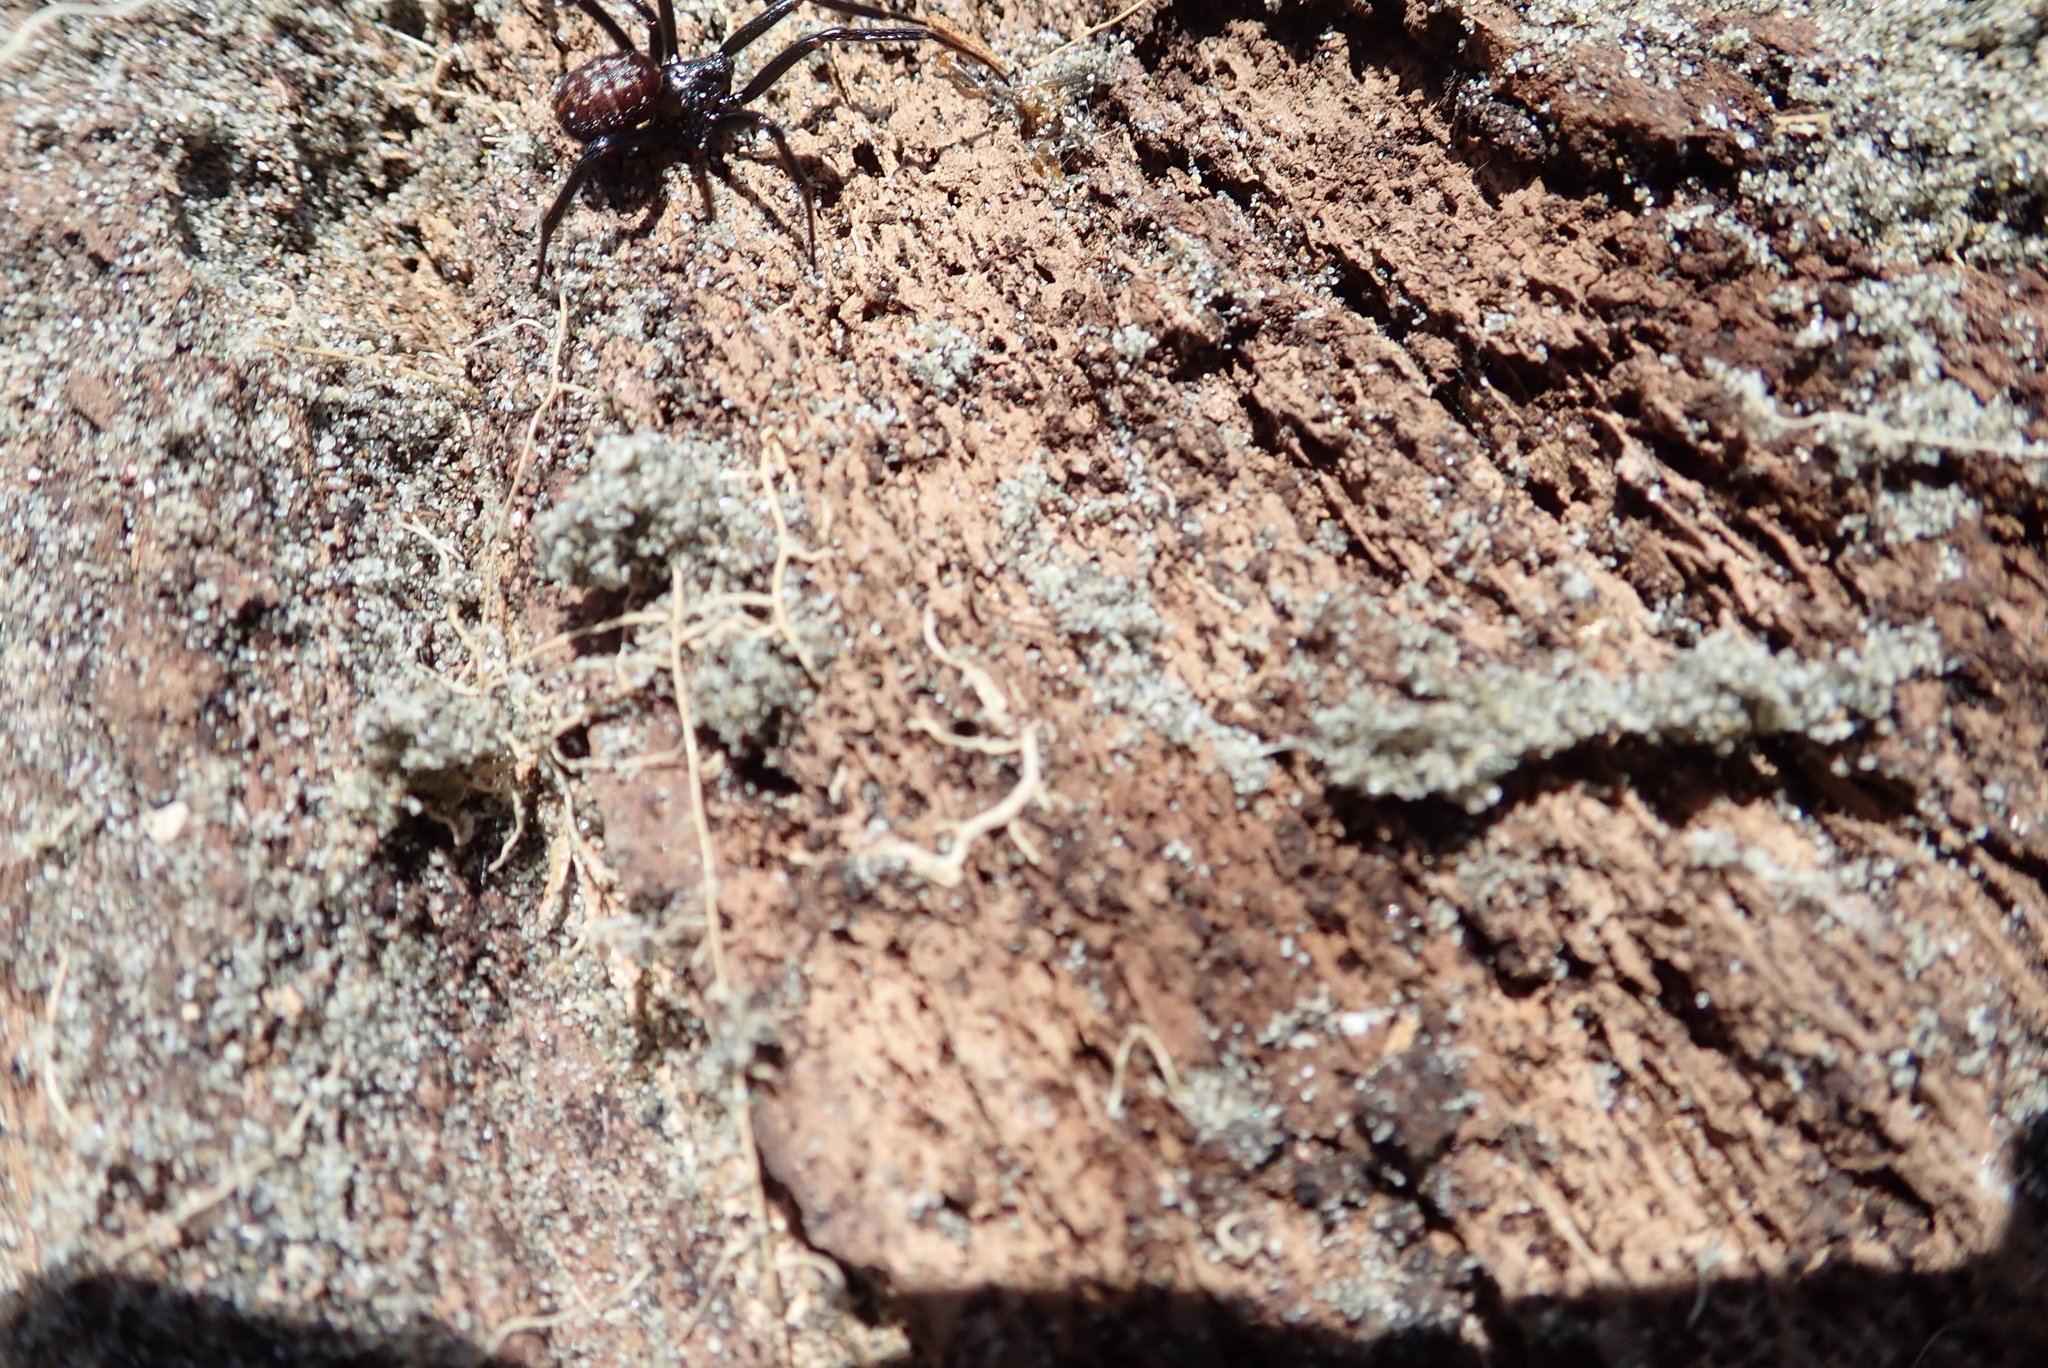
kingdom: Animalia
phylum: Arthropoda
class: Arachnida
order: Araneae
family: Theridiidae
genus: Steatoda
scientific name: Steatoda capensis
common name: Cobweb weaver
